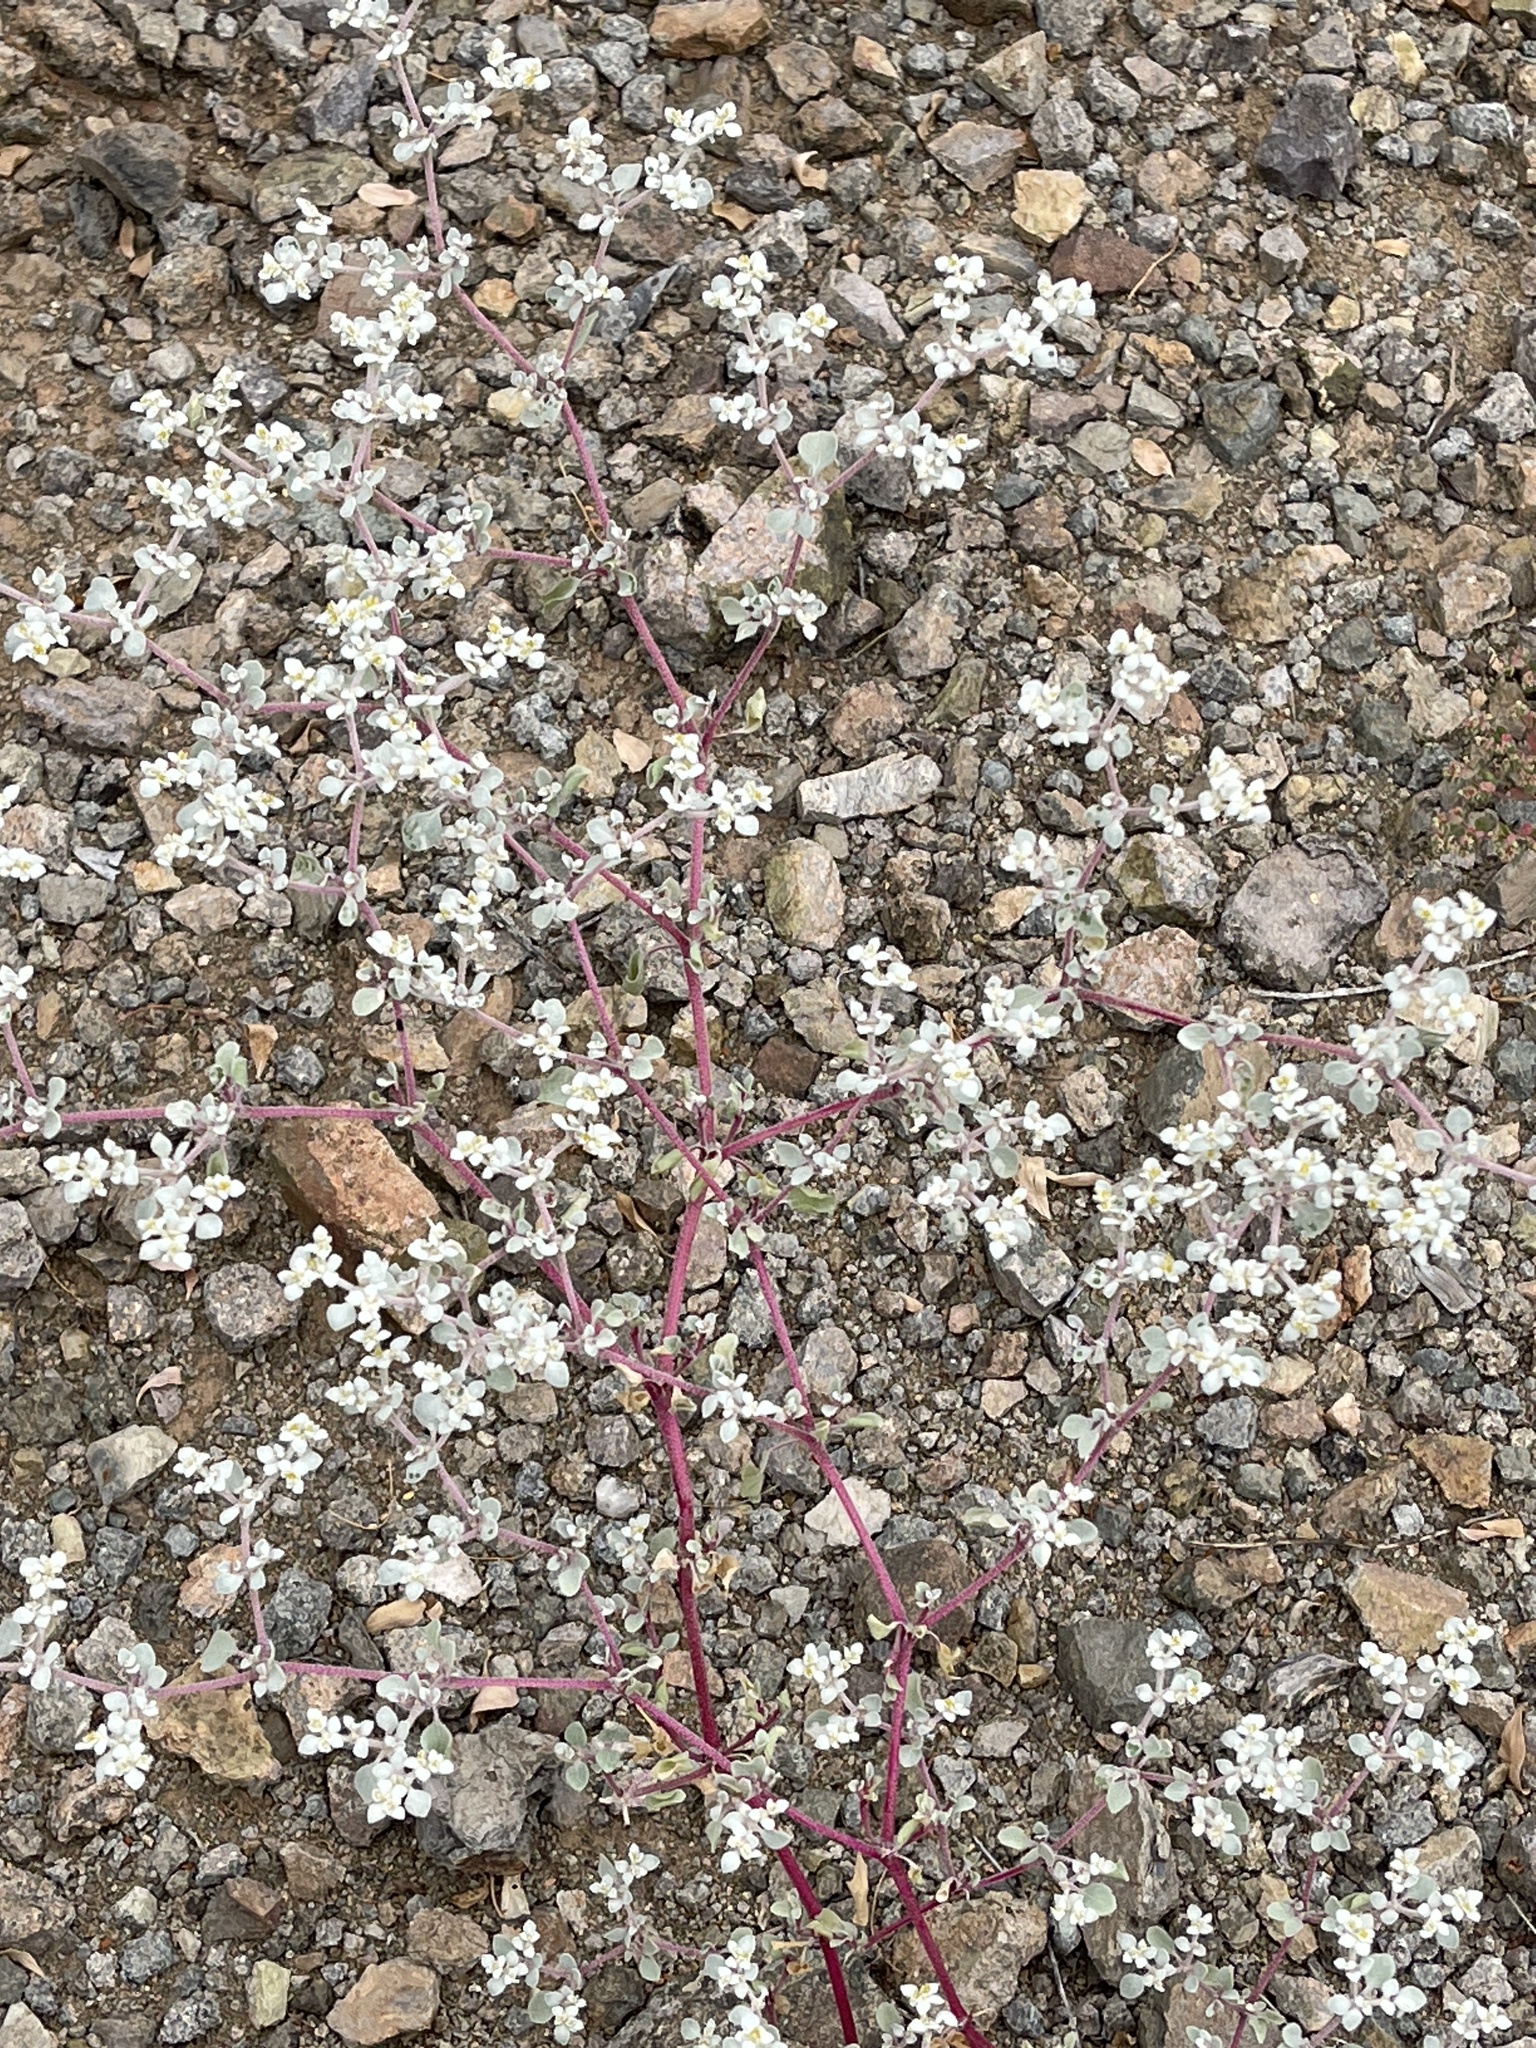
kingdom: Plantae
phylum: Tracheophyta
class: Magnoliopsida
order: Caryophyllales
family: Amaranthaceae
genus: Tidestromia
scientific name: Tidestromia lanuginosa
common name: Woolly tidestromia
